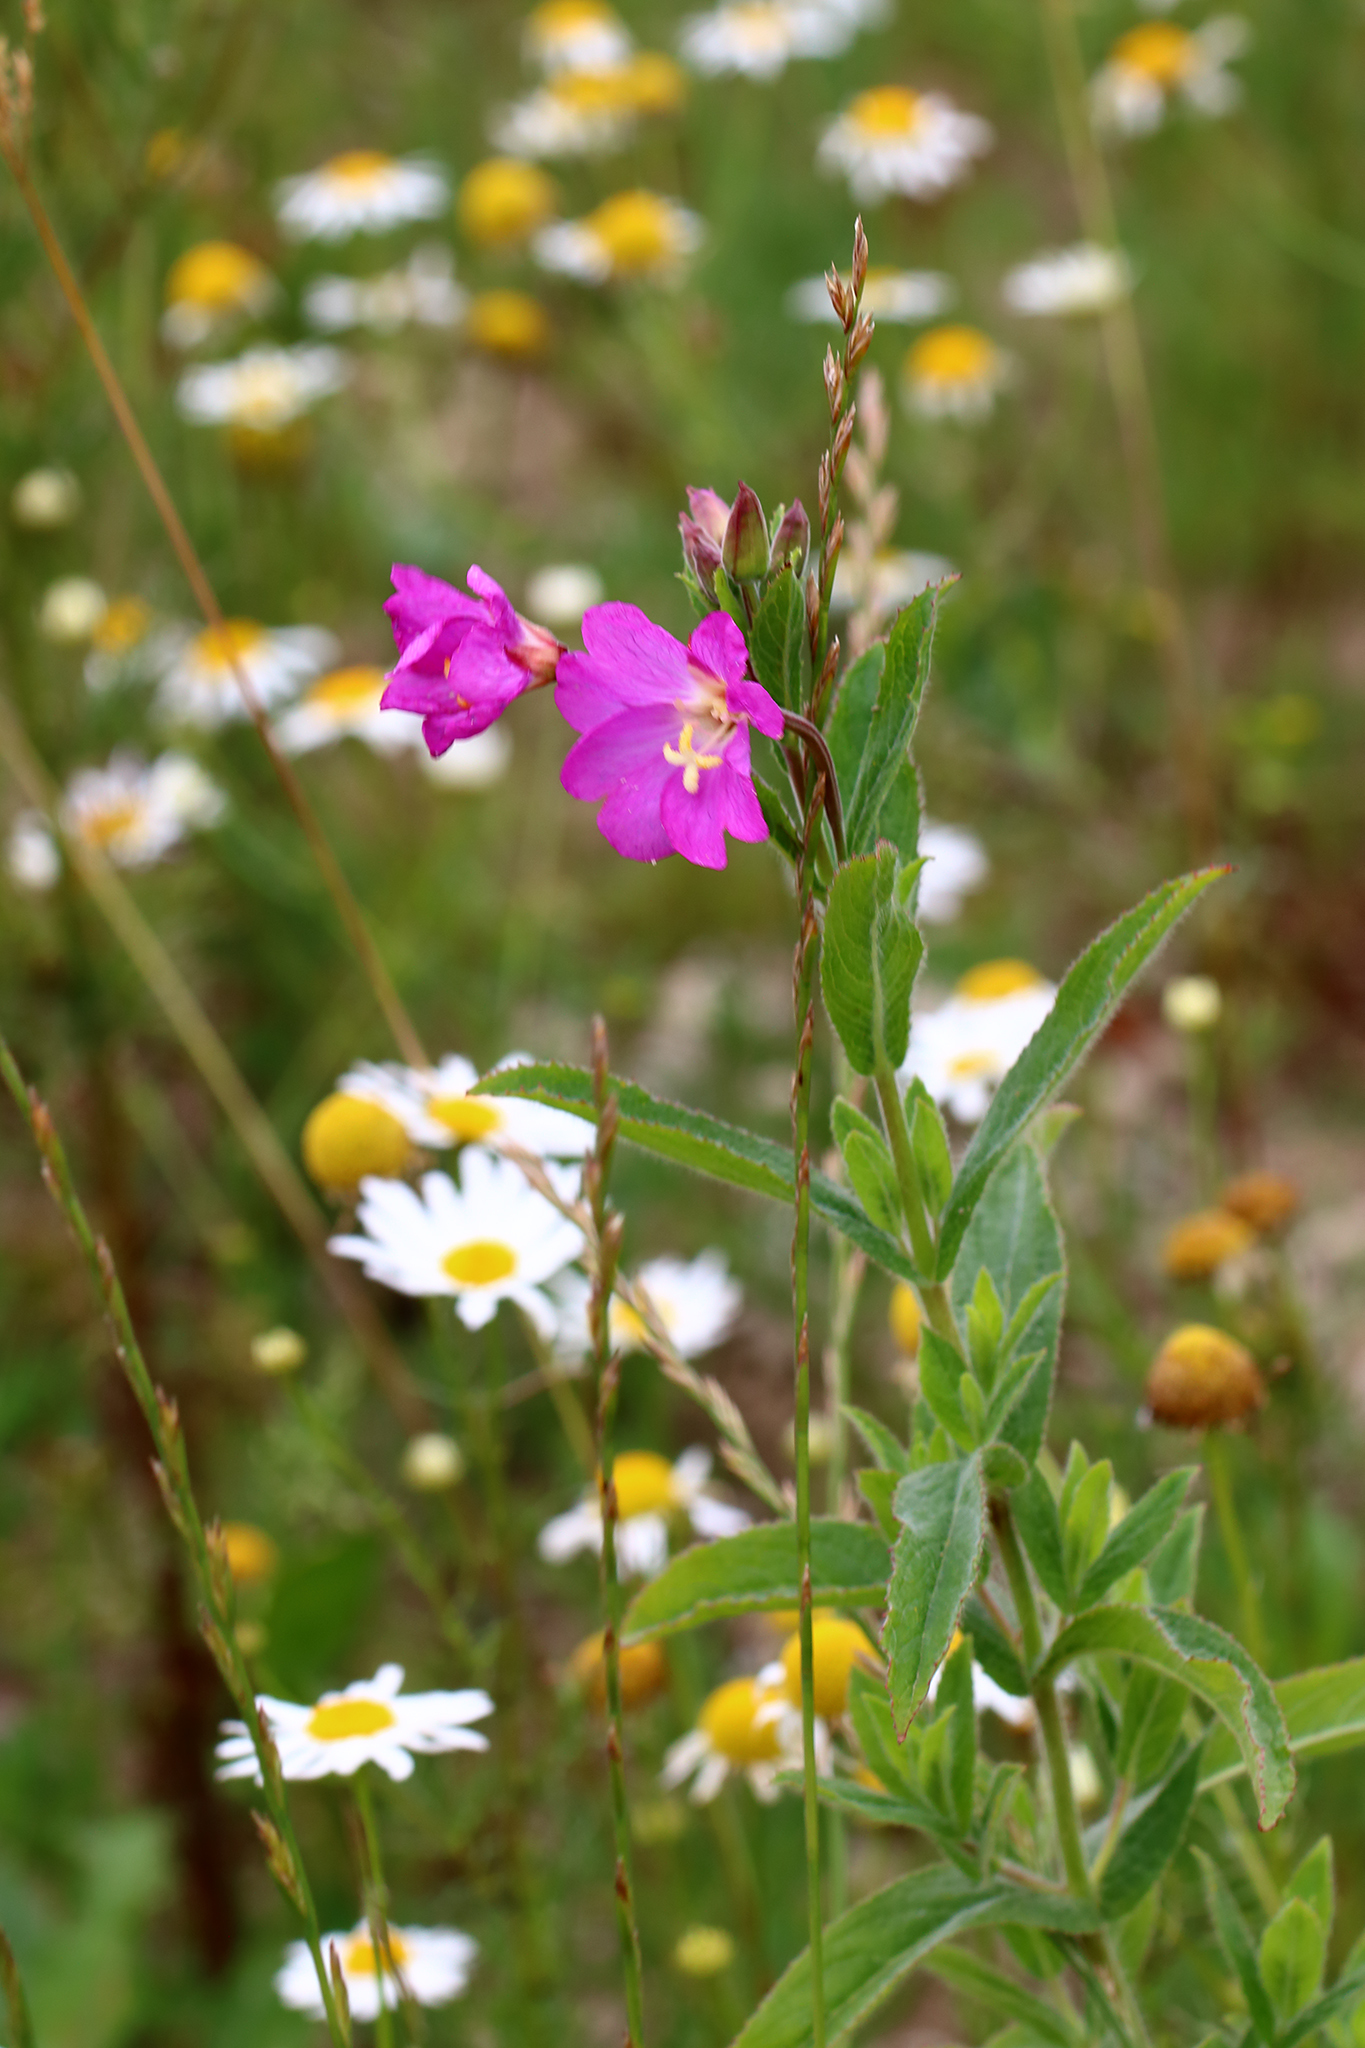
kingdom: Plantae
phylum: Tracheophyta
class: Magnoliopsida
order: Myrtales
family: Onagraceae
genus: Epilobium
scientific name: Epilobium hirsutum
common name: Great willowherb
